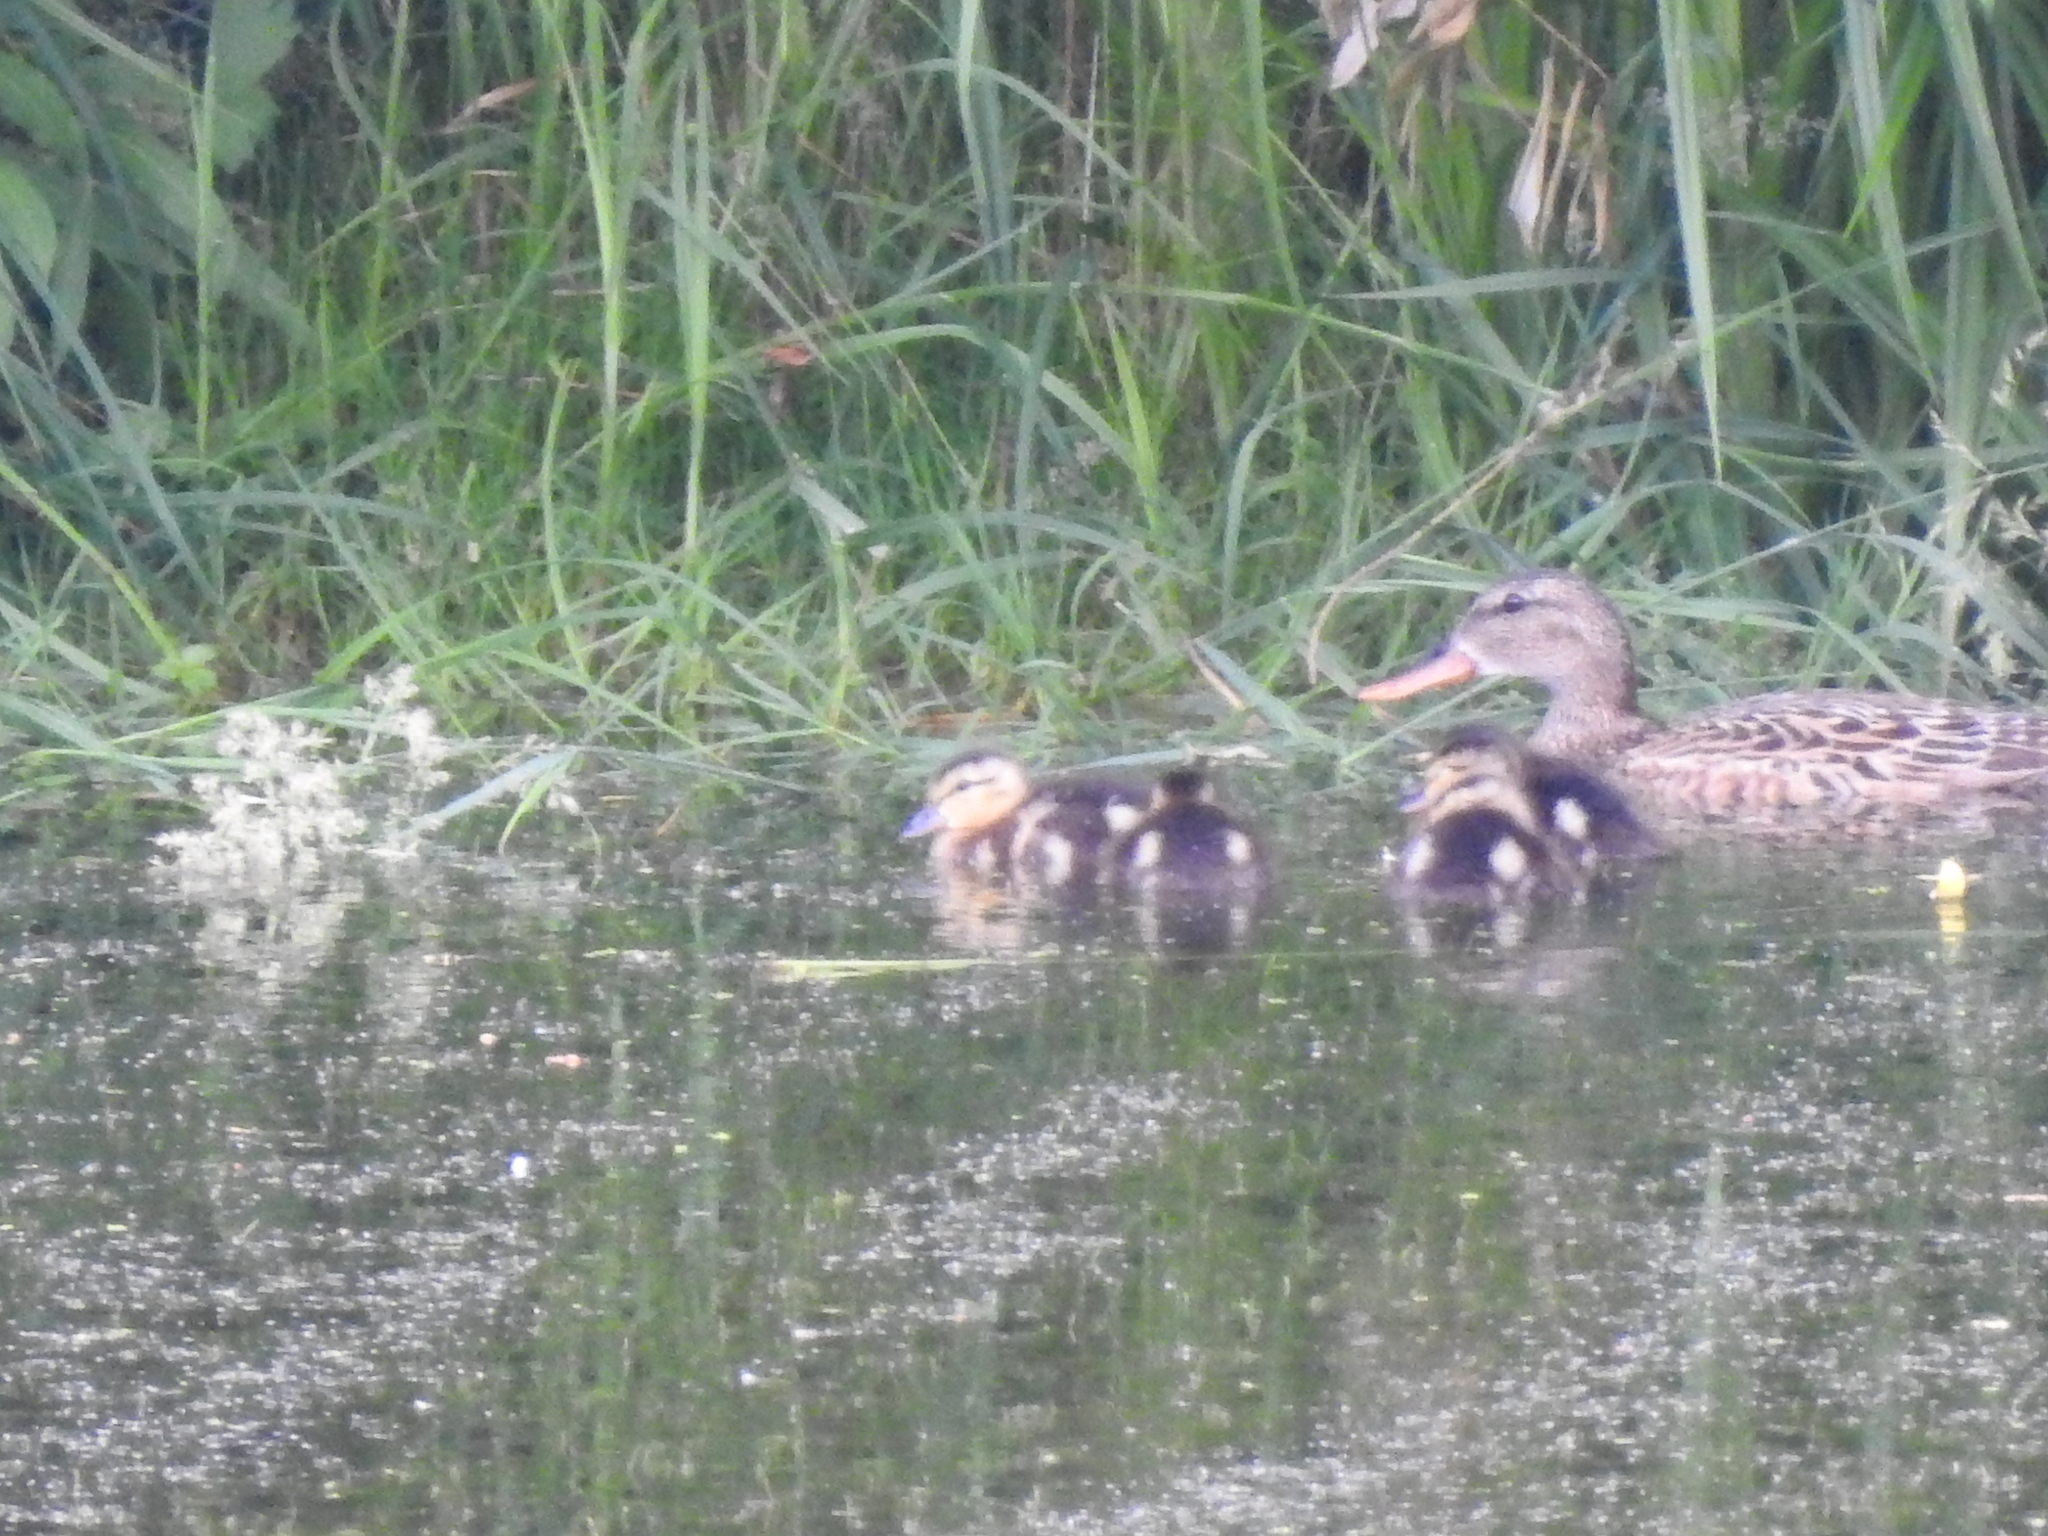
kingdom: Animalia
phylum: Chordata
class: Aves
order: Anseriformes
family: Anatidae
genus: Mareca
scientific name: Mareca strepera
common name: Gadwall
